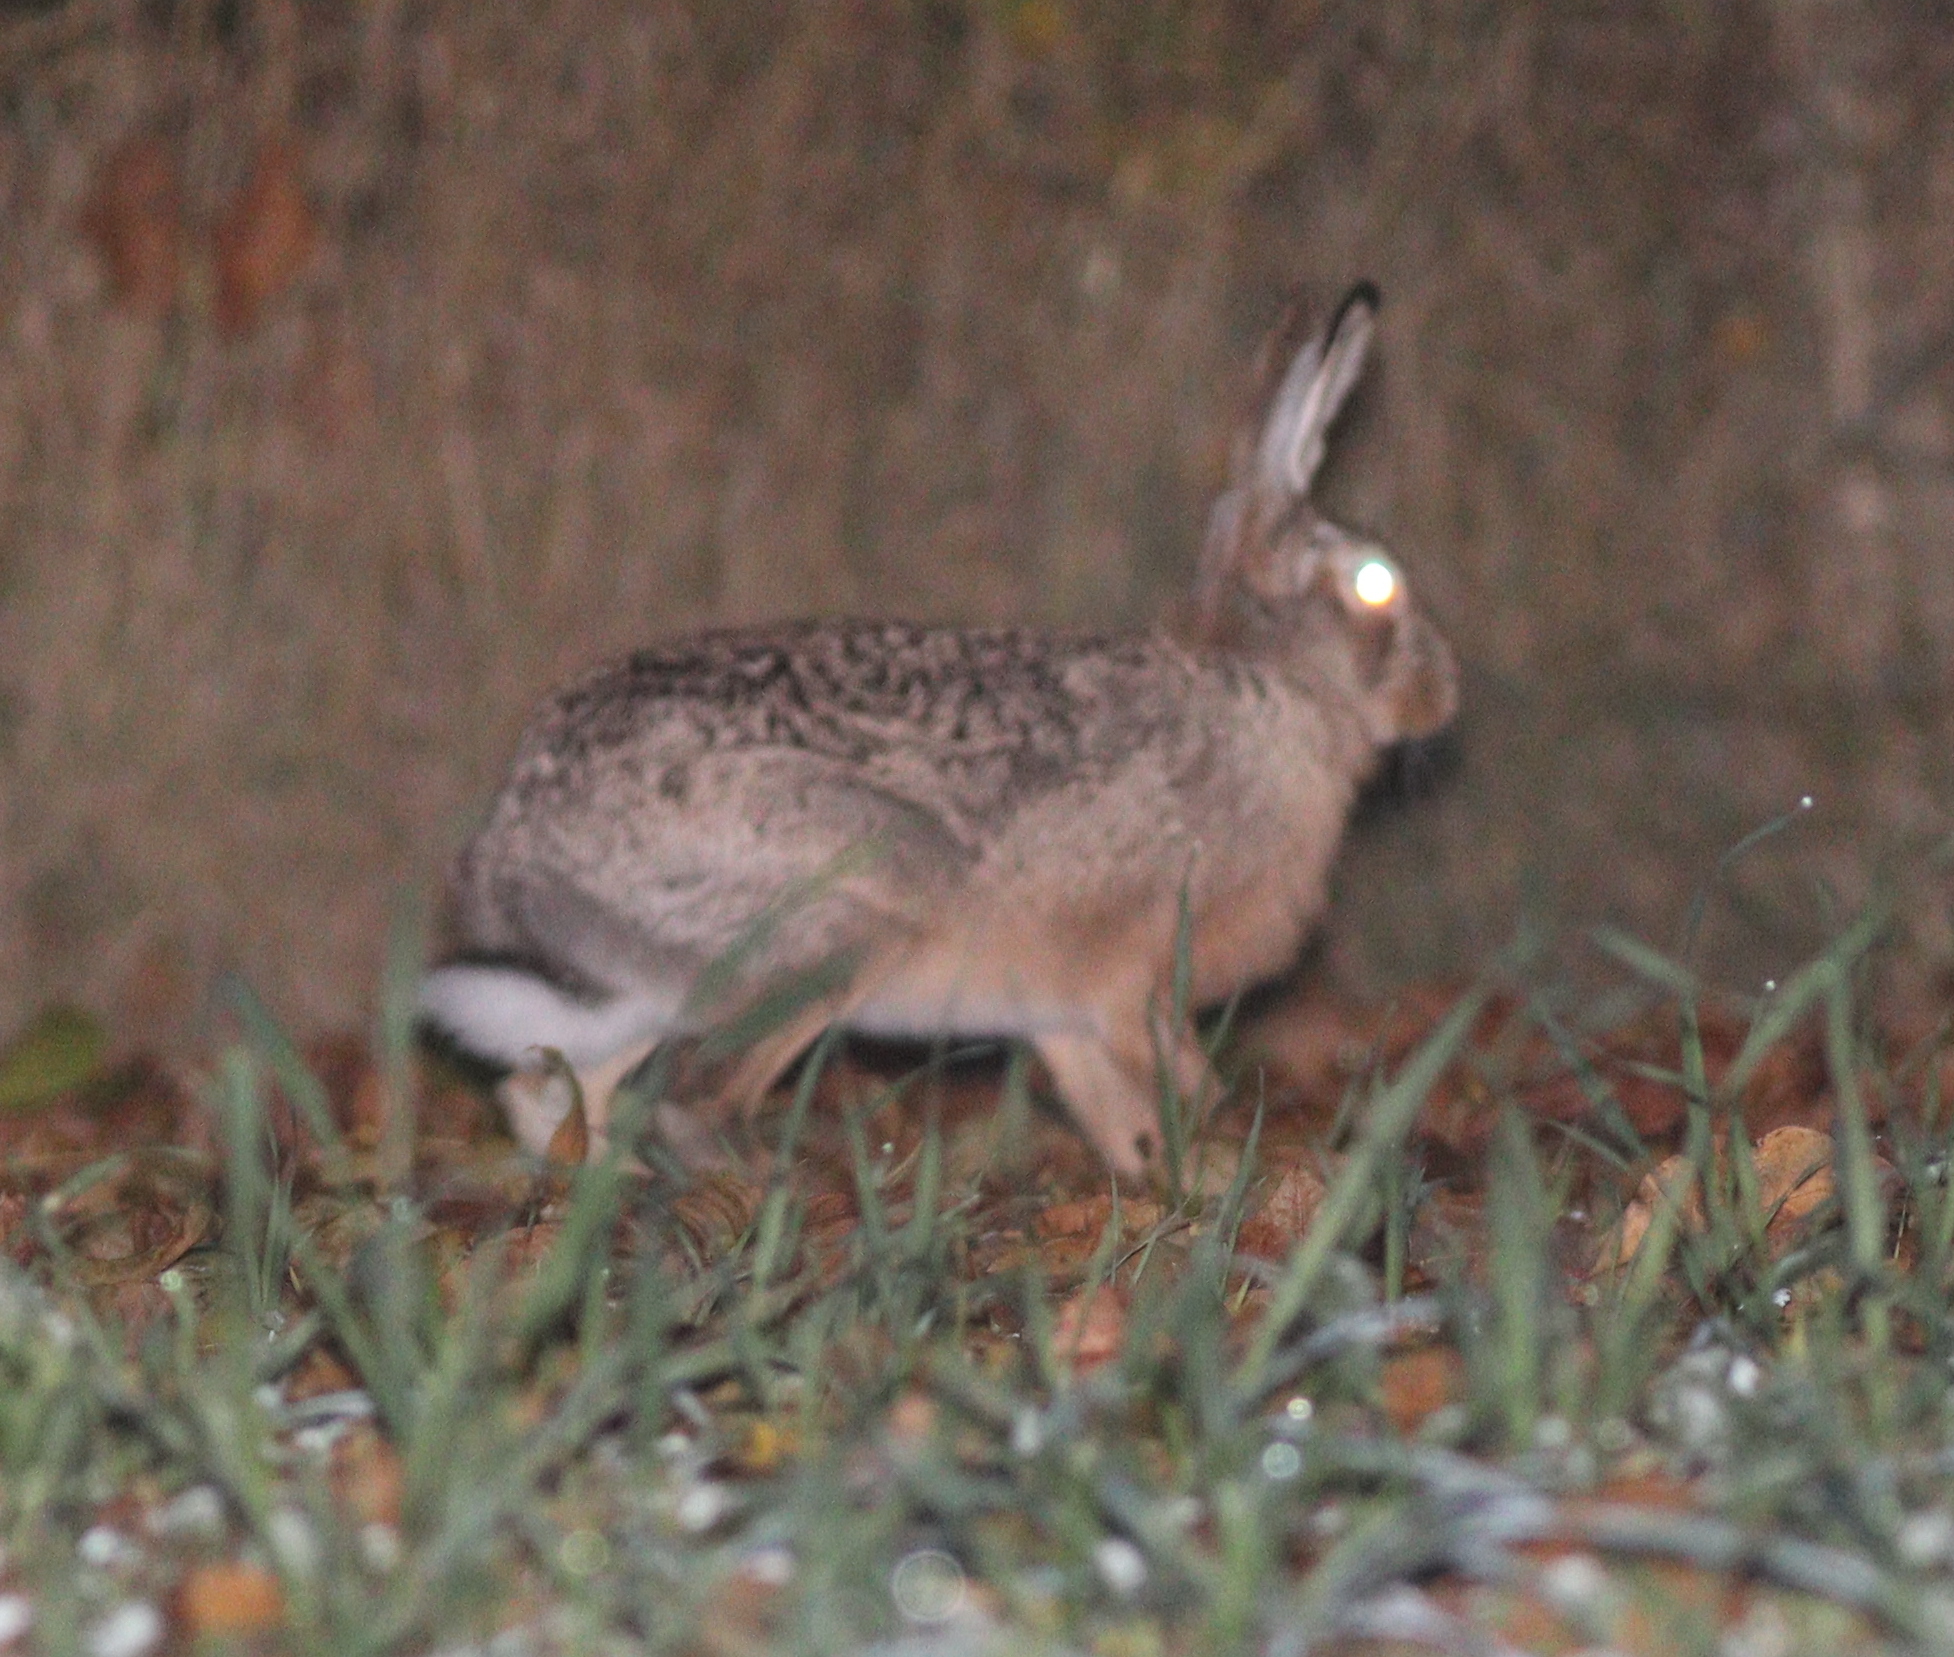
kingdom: Animalia
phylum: Chordata
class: Mammalia
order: Lagomorpha
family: Leporidae
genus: Lepus
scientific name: Lepus europaeus
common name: European hare
